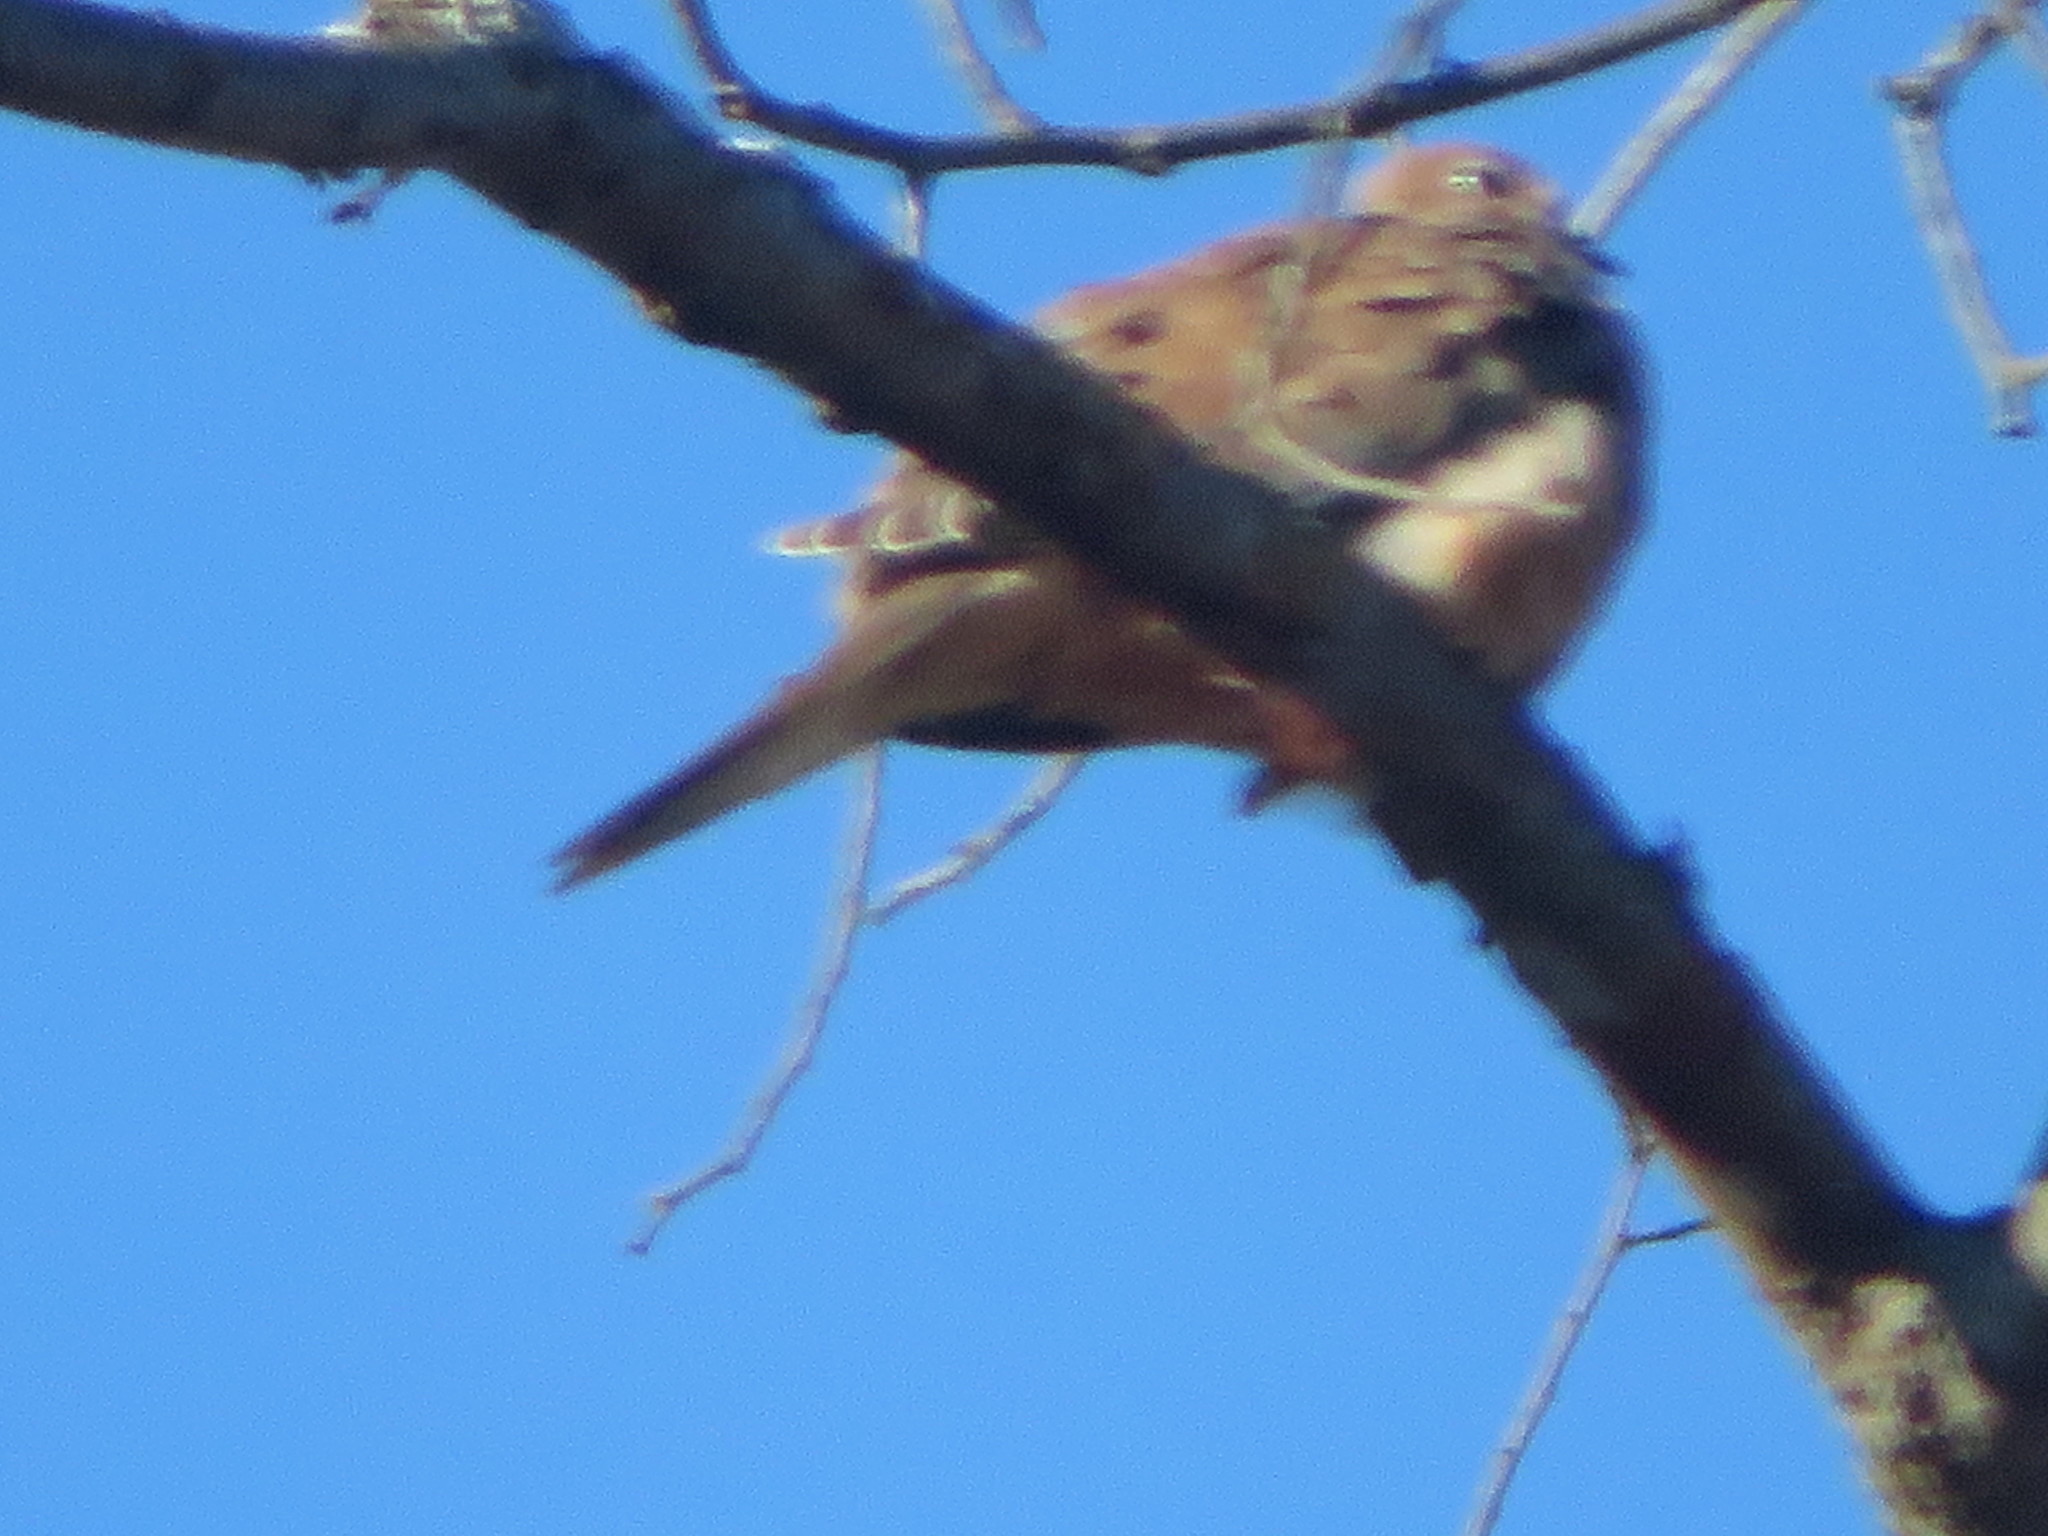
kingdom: Animalia
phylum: Chordata
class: Aves
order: Columbiformes
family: Columbidae
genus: Zenaida
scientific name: Zenaida macroura
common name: Mourning dove
